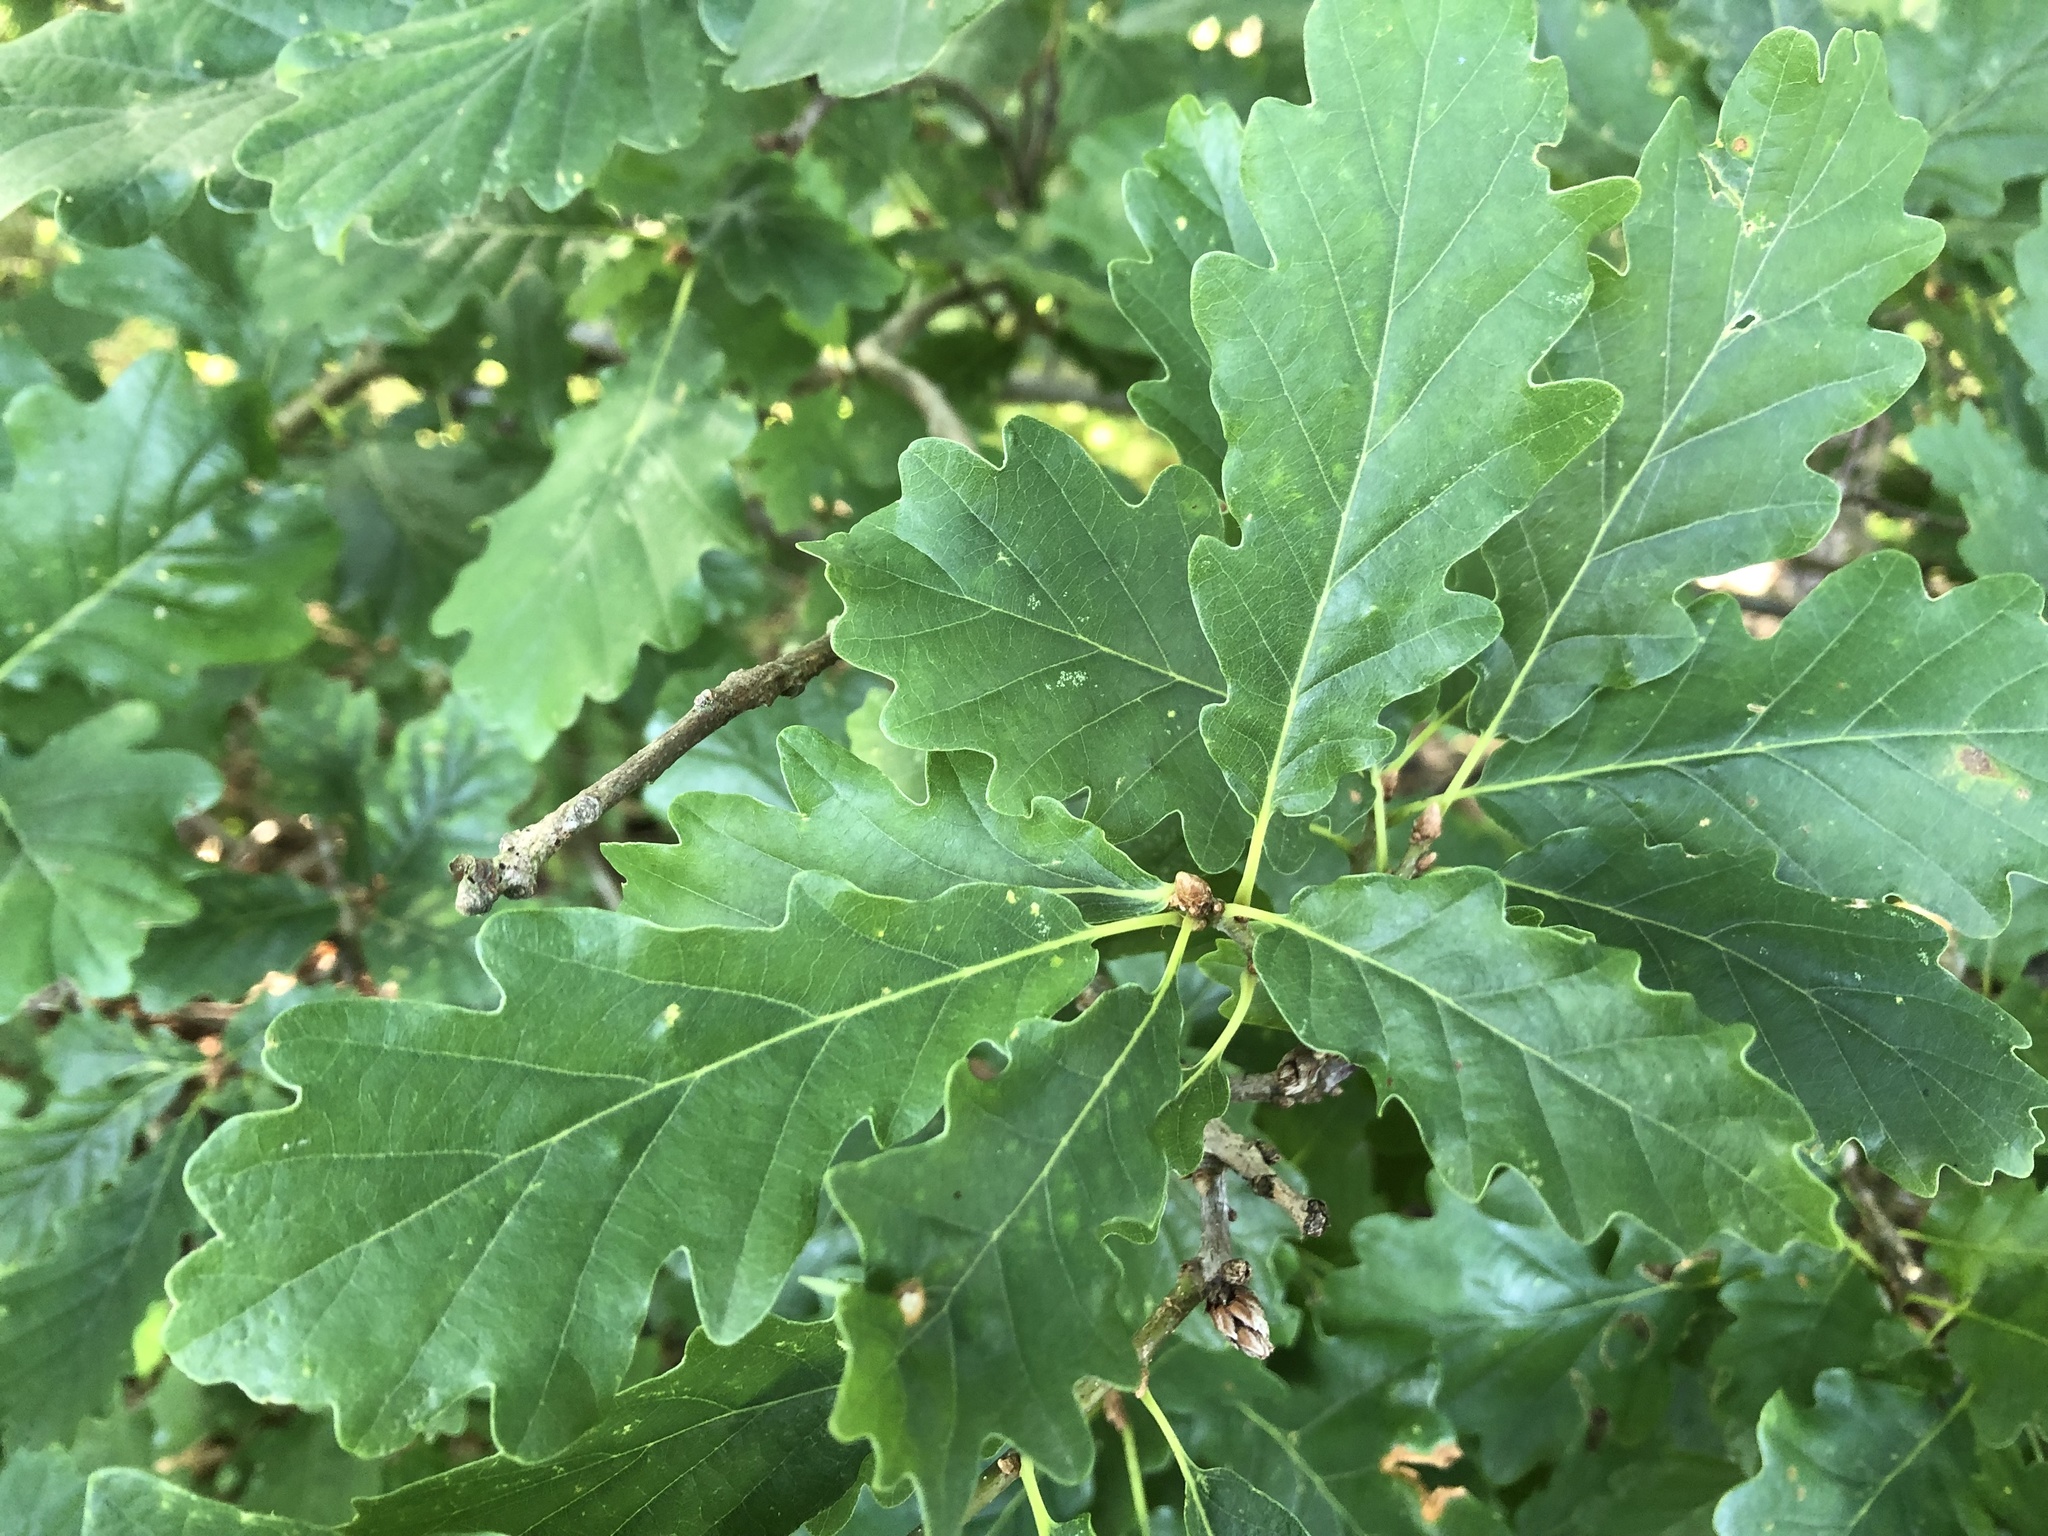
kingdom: Plantae
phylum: Tracheophyta
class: Magnoliopsida
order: Fagales
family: Fagaceae
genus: Quercus
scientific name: Quercus petraea
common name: Sessile oak
